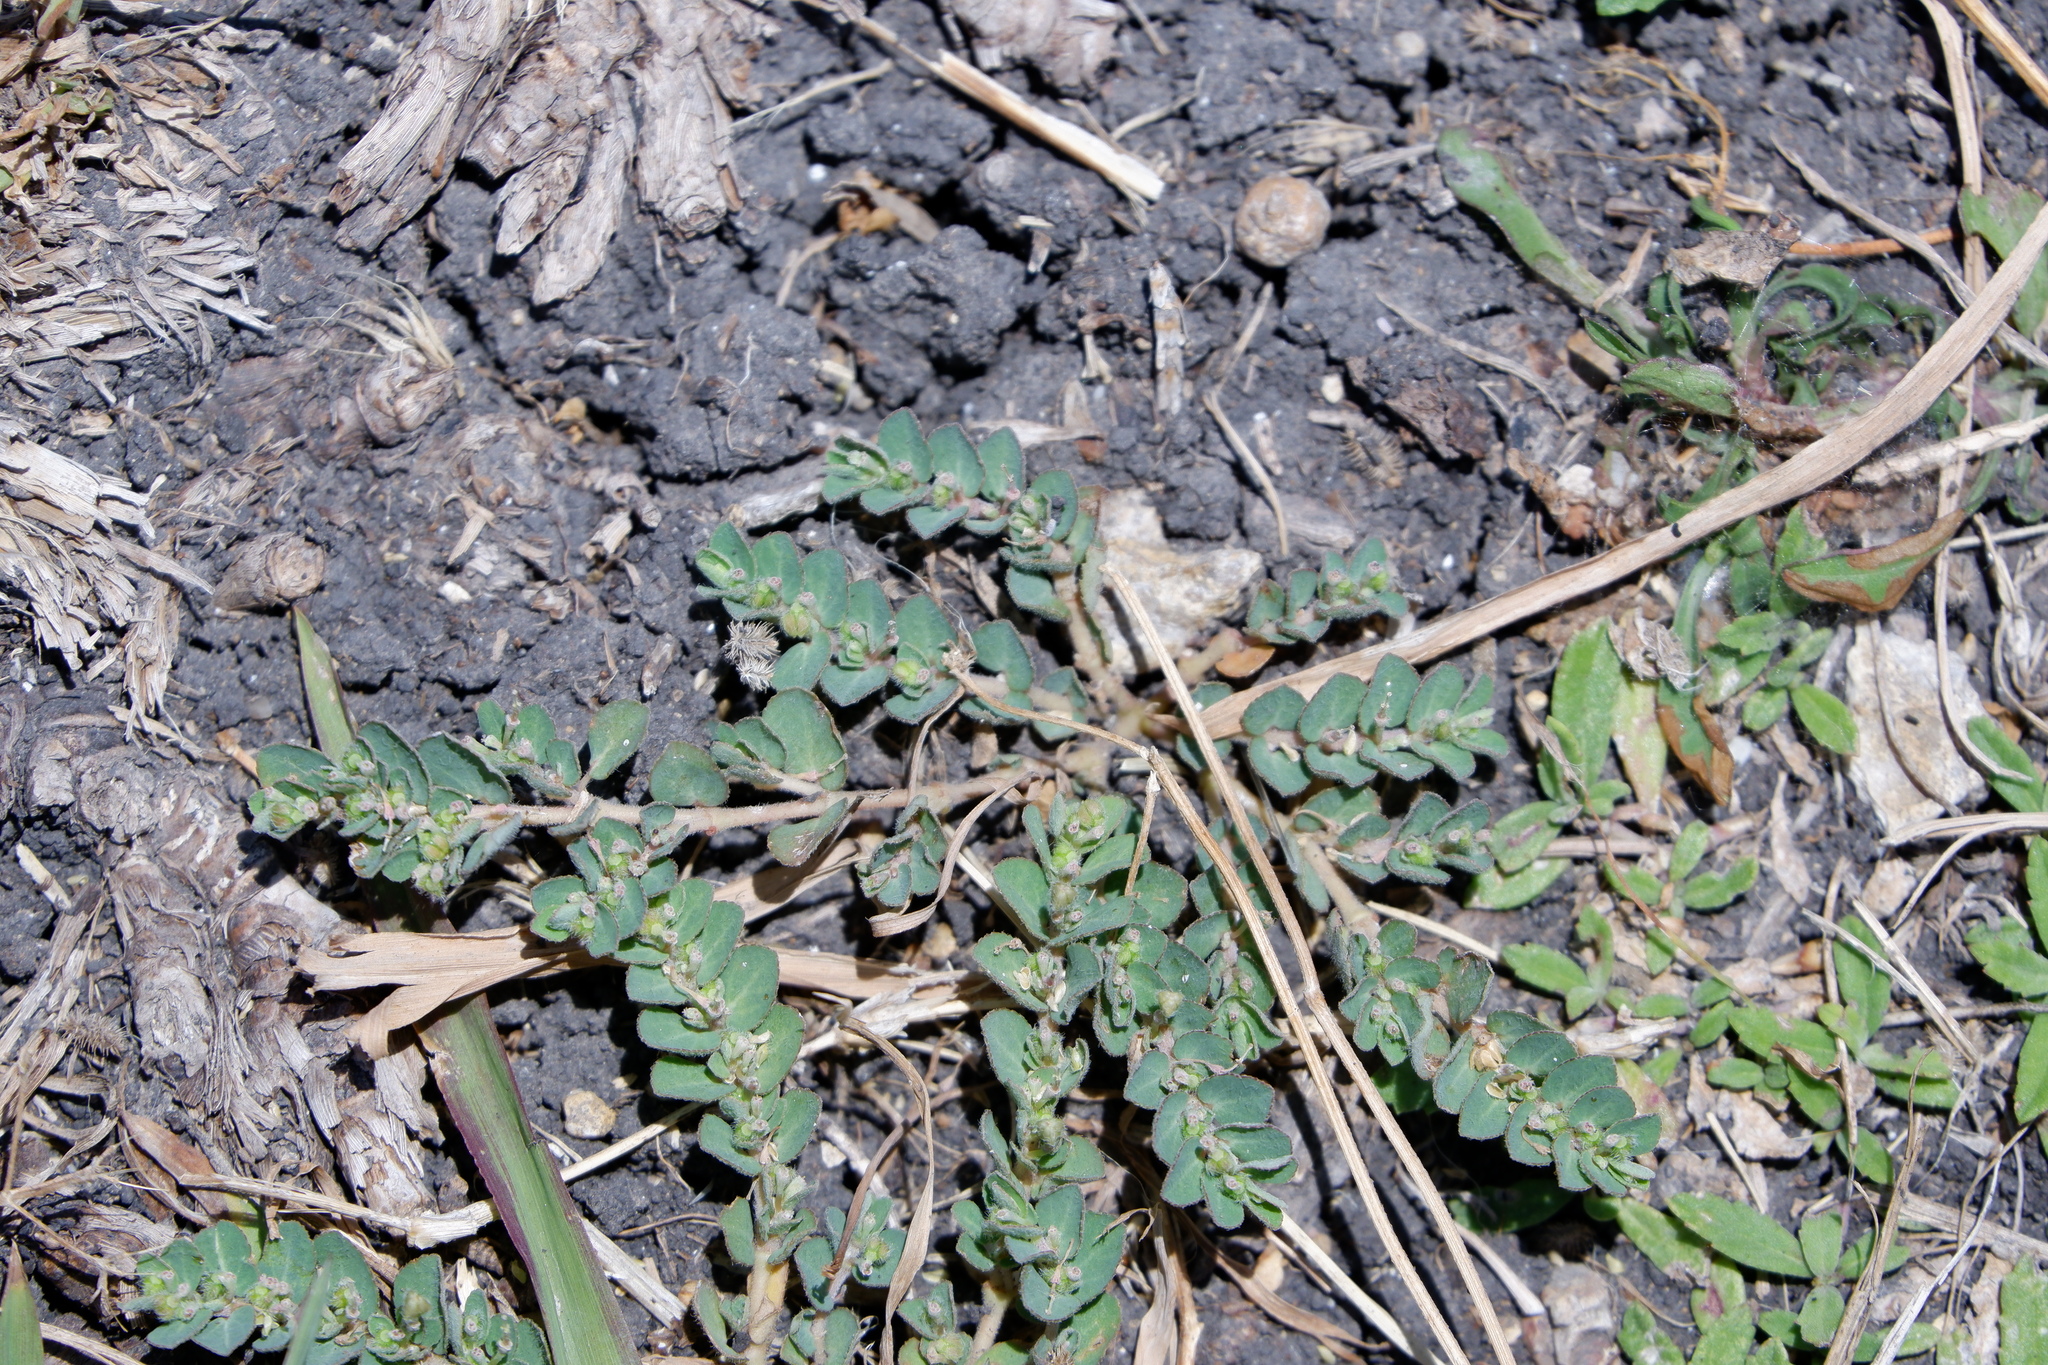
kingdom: Plantae
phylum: Tracheophyta
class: Magnoliopsida
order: Malpighiales
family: Euphorbiaceae
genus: Euphorbia
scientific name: Euphorbia prostrata
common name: Prostrate sandmat
